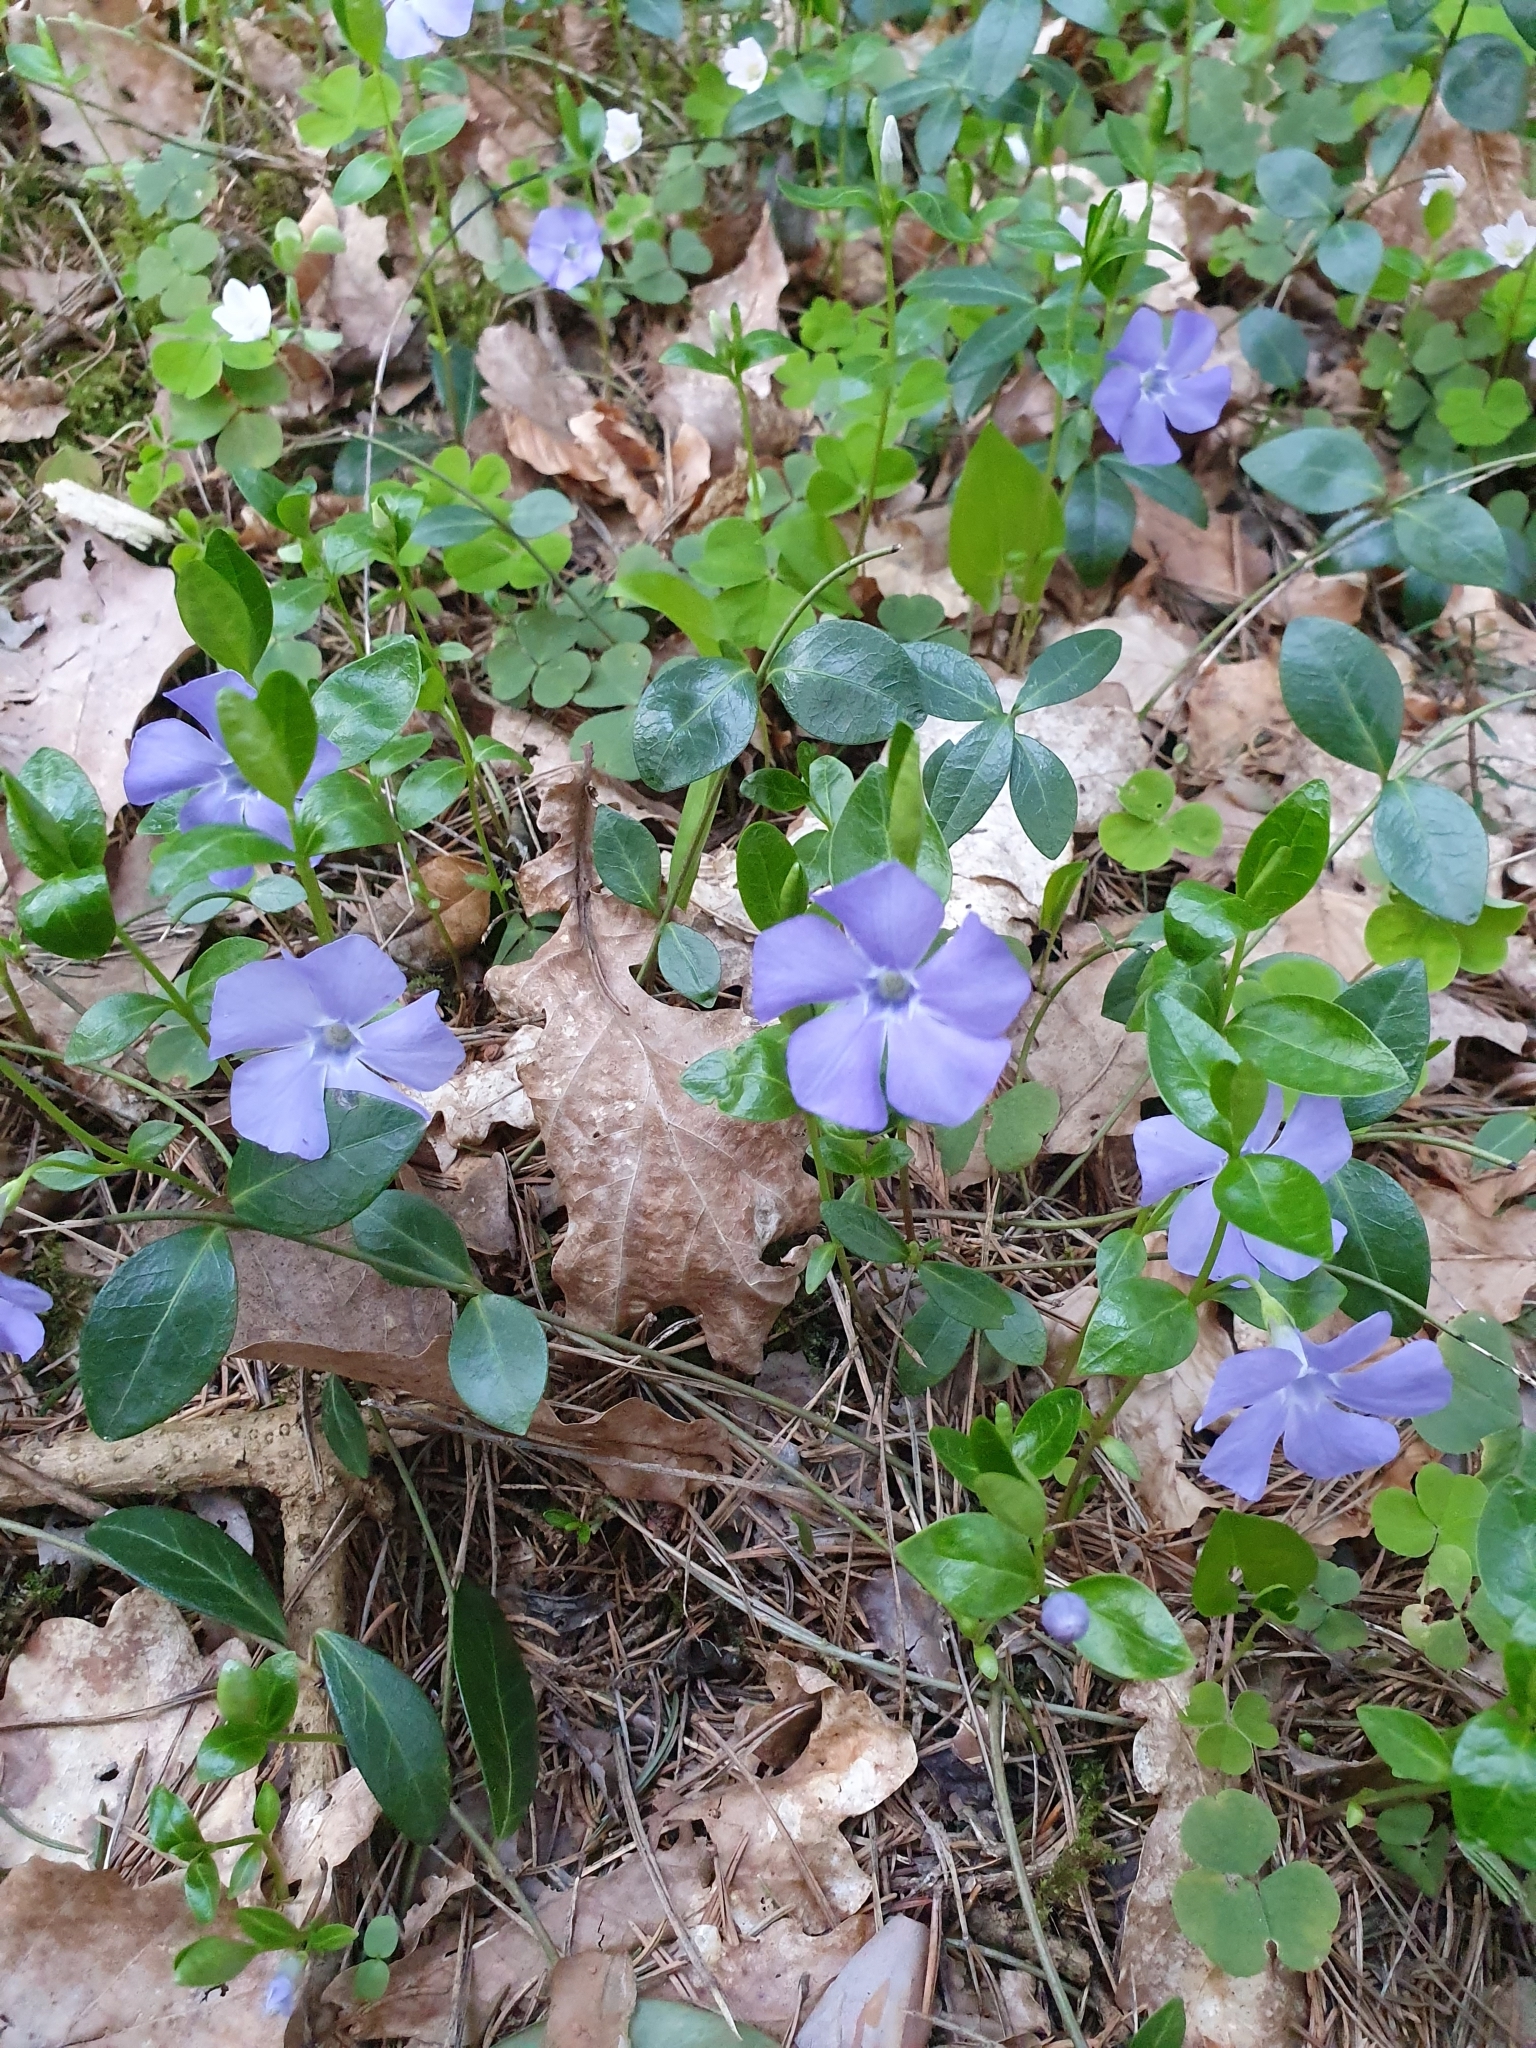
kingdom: Plantae
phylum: Tracheophyta
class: Magnoliopsida
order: Gentianales
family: Apocynaceae
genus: Vinca
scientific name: Vinca minor
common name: Lesser periwinkle
